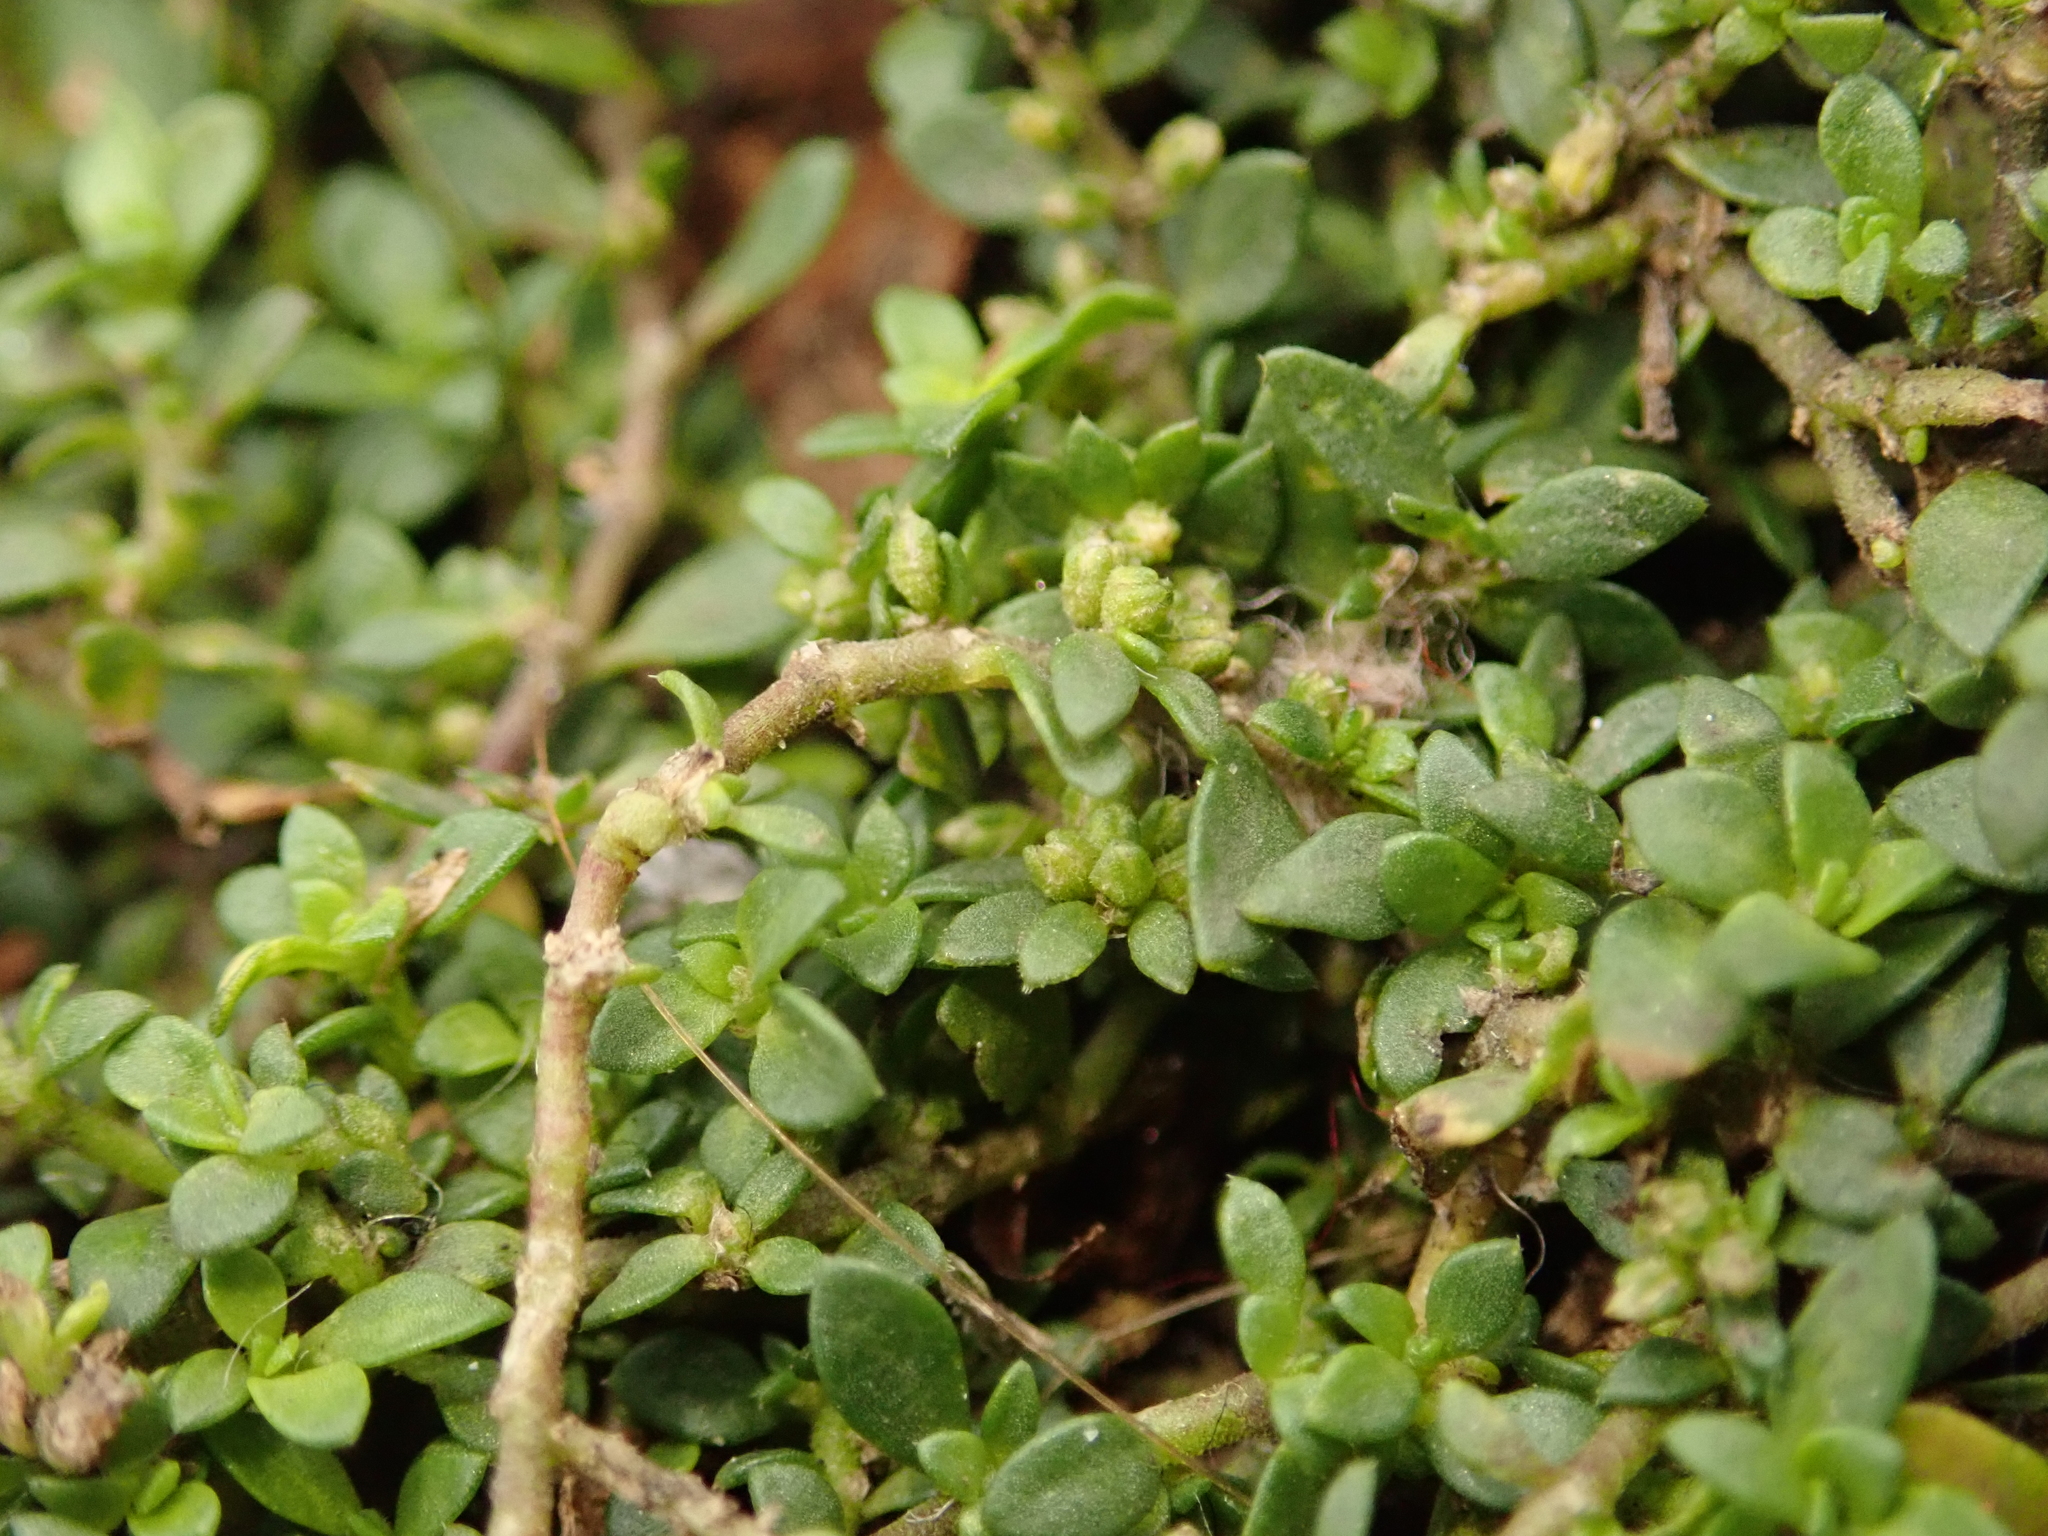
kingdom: Plantae
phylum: Tracheophyta
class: Magnoliopsida
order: Caryophyllales
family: Caryophyllaceae
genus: Herniaria
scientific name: Herniaria glabra
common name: Smooth rupturewort
